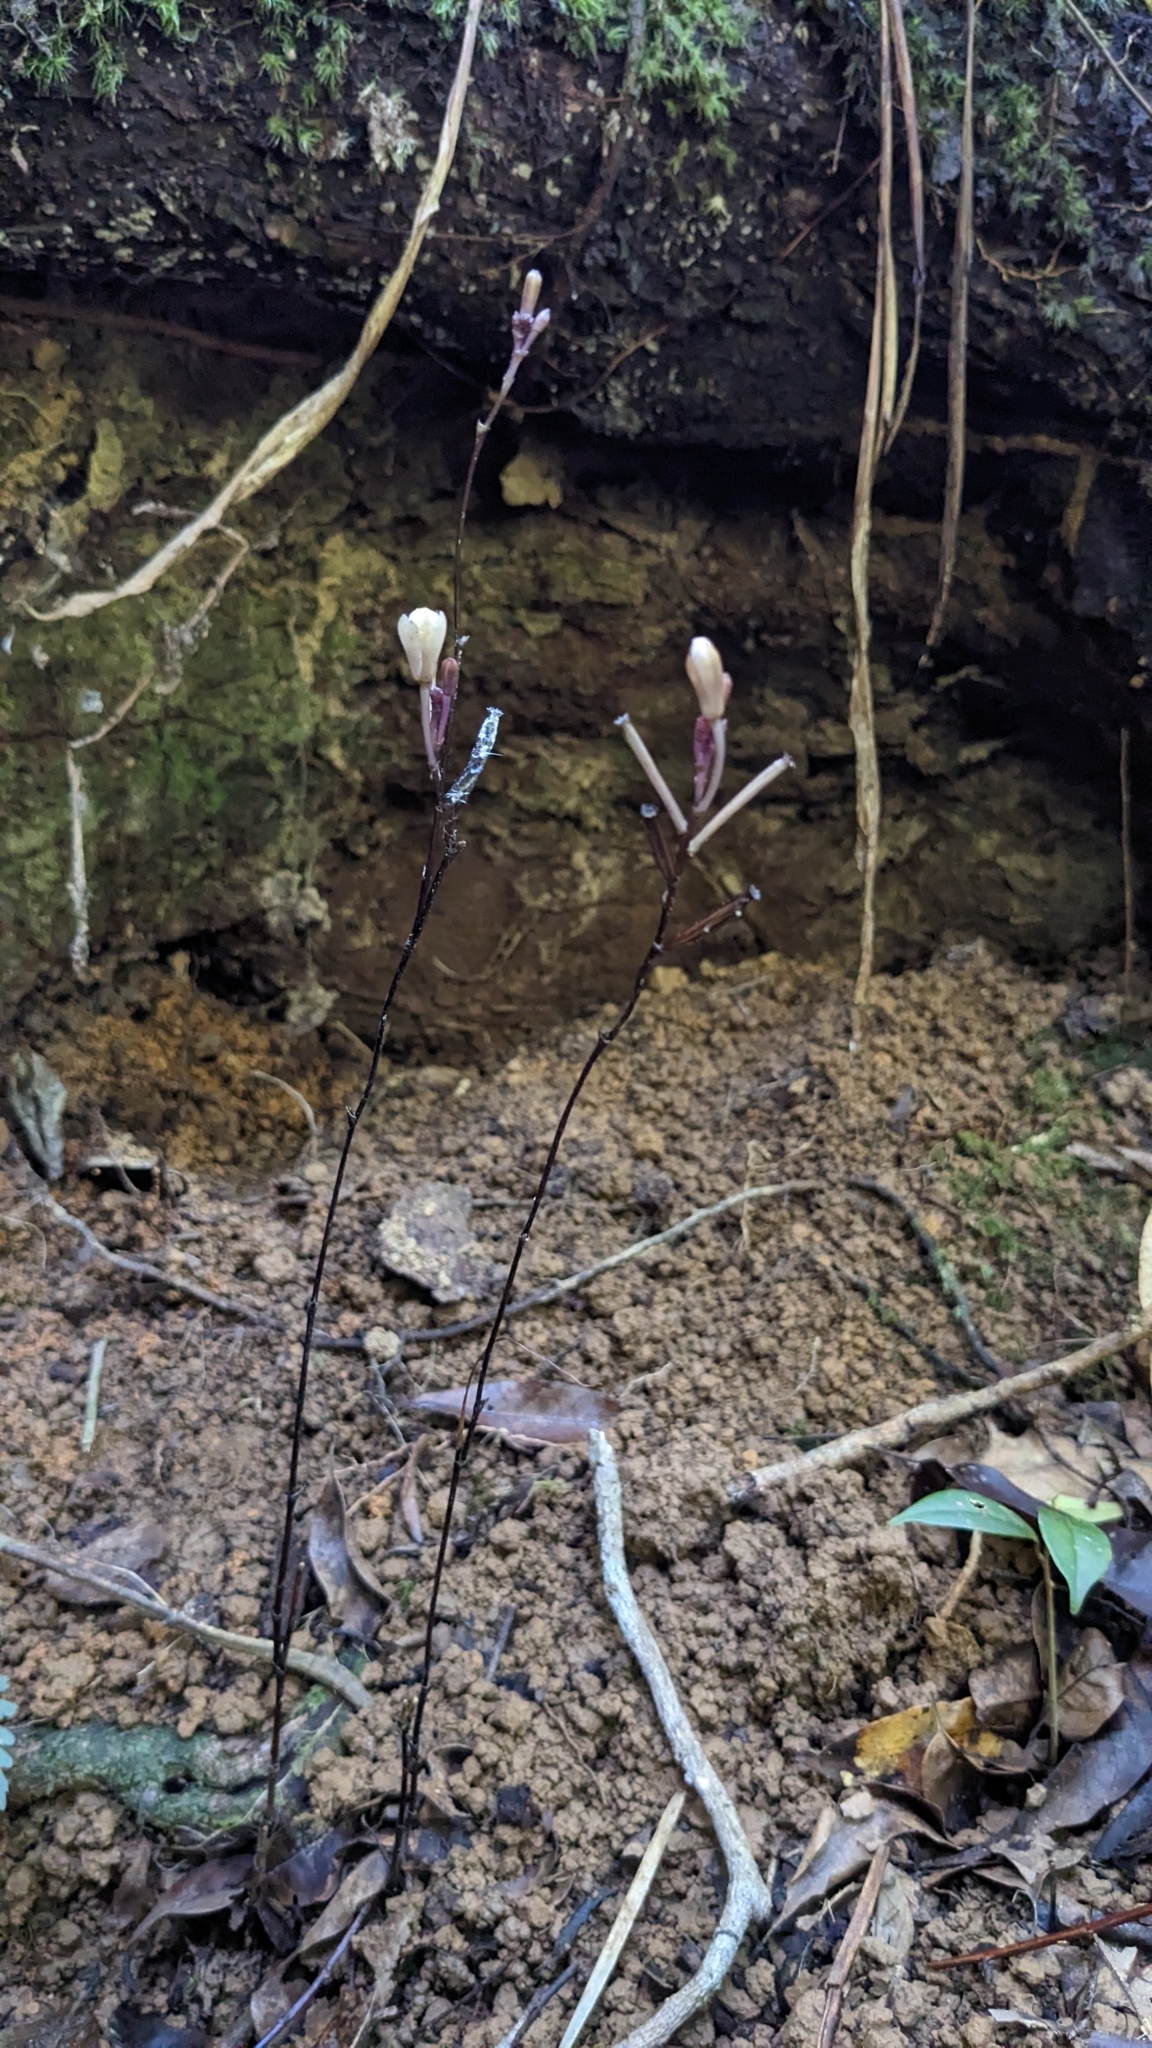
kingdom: Plantae
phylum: Tracheophyta
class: Liliopsida
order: Asparagales
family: Orchidaceae
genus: Lecanorchis
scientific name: Lecanorchis multiflora
